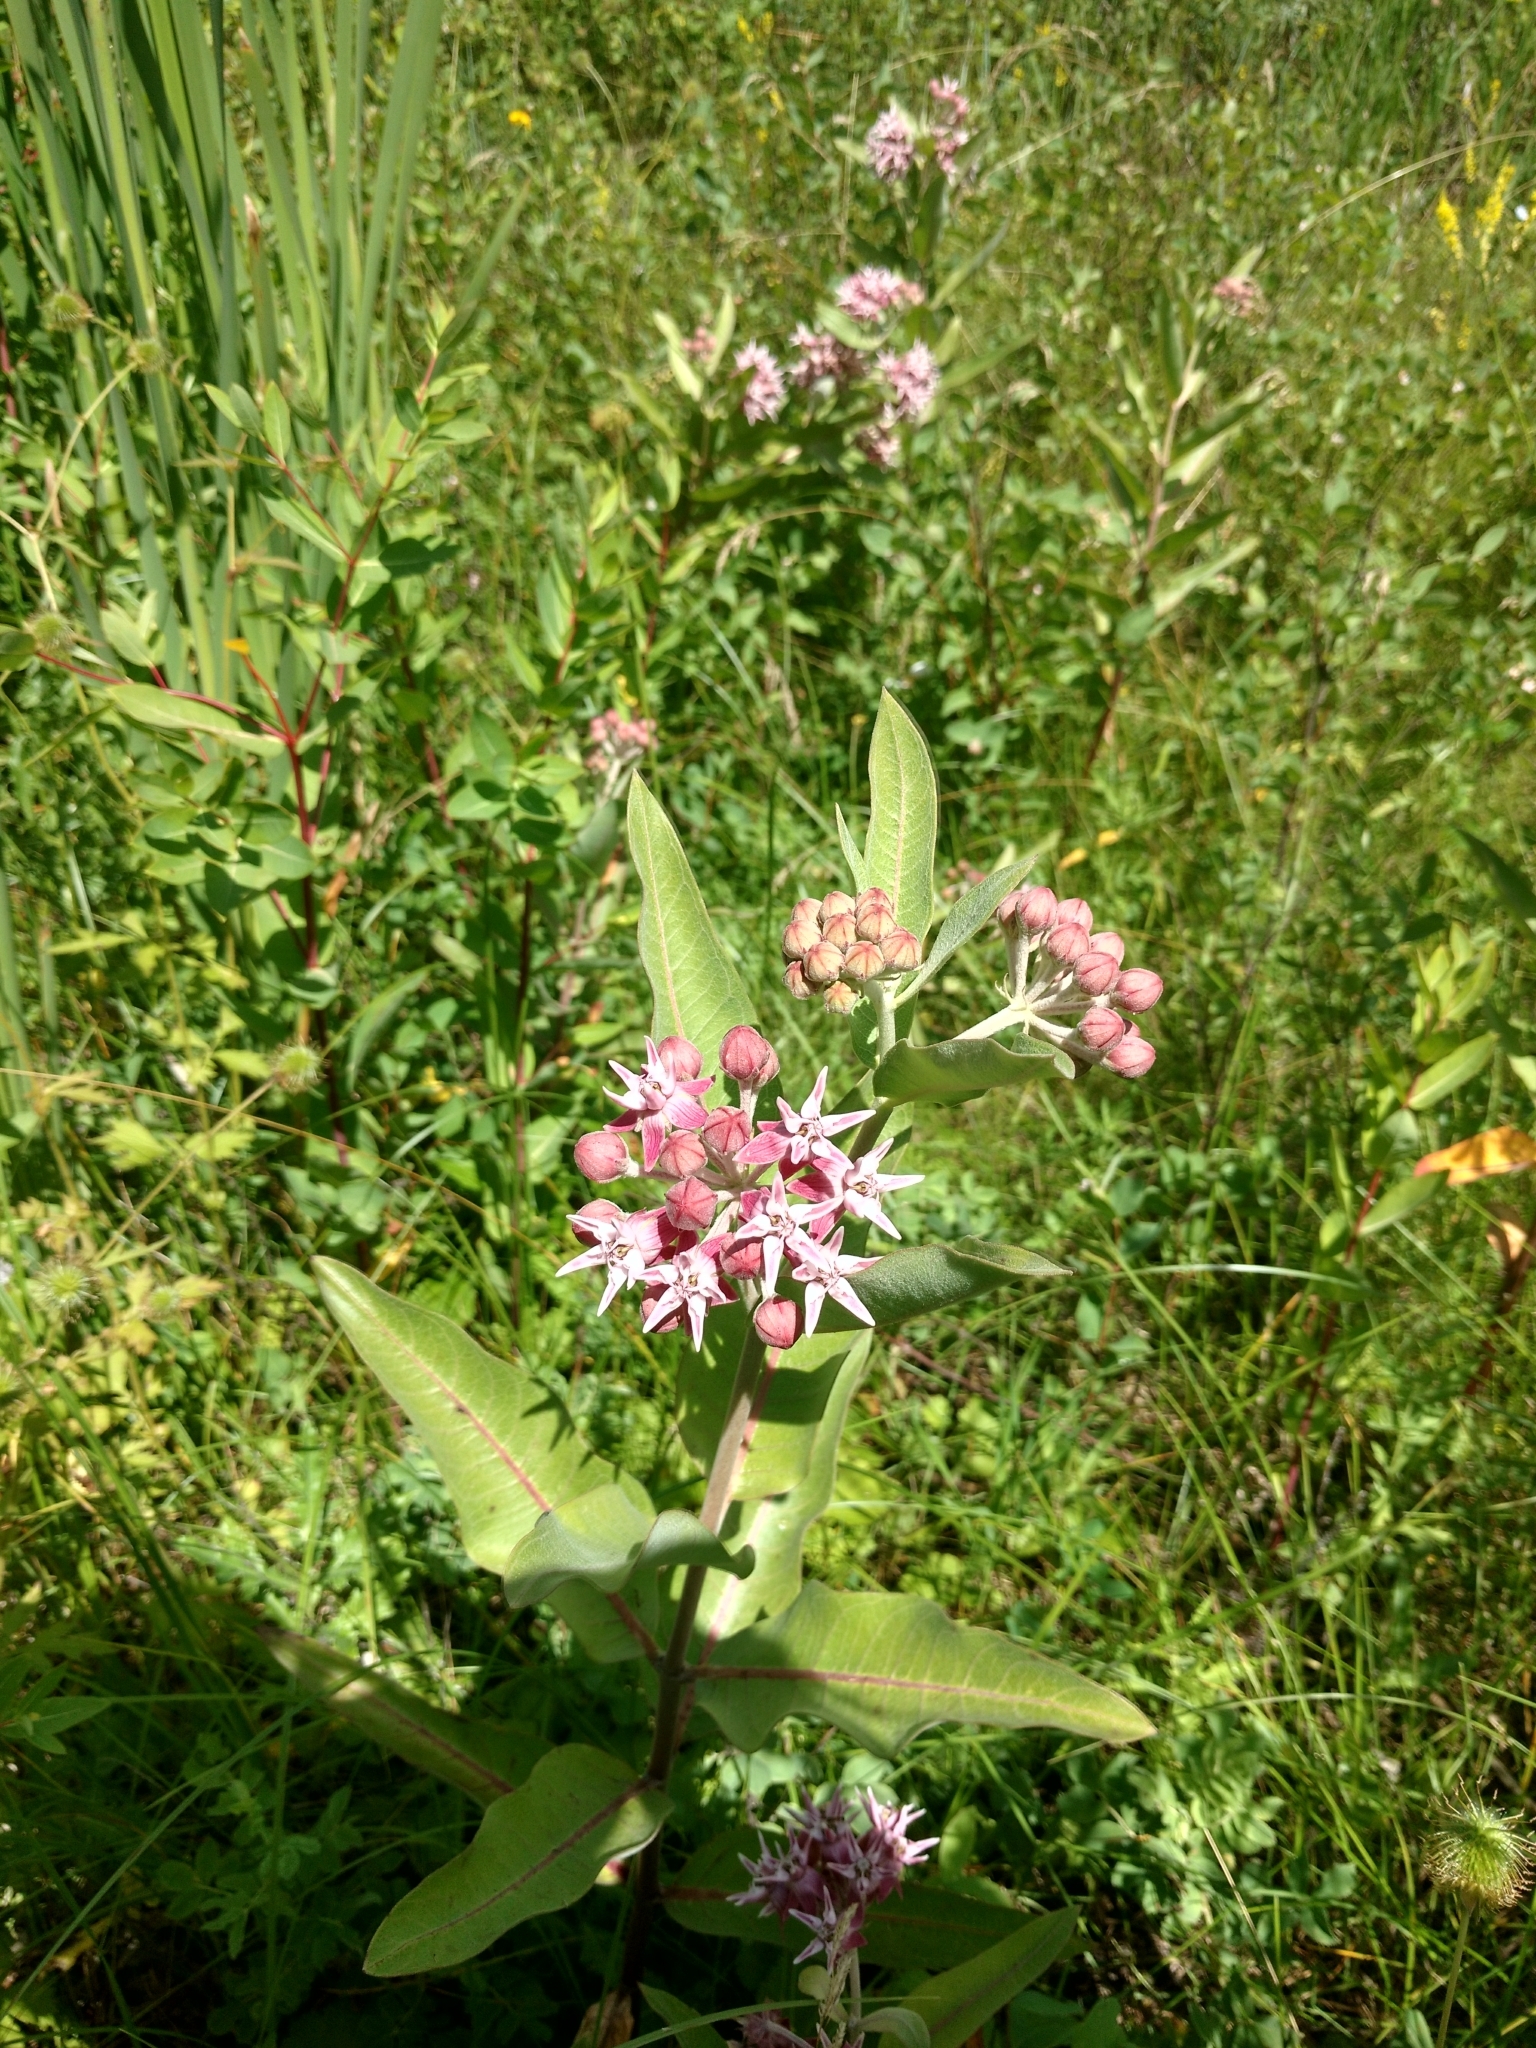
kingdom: Plantae
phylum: Tracheophyta
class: Magnoliopsida
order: Gentianales
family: Apocynaceae
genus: Asclepias
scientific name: Asclepias speciosa
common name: Showy milkweed
